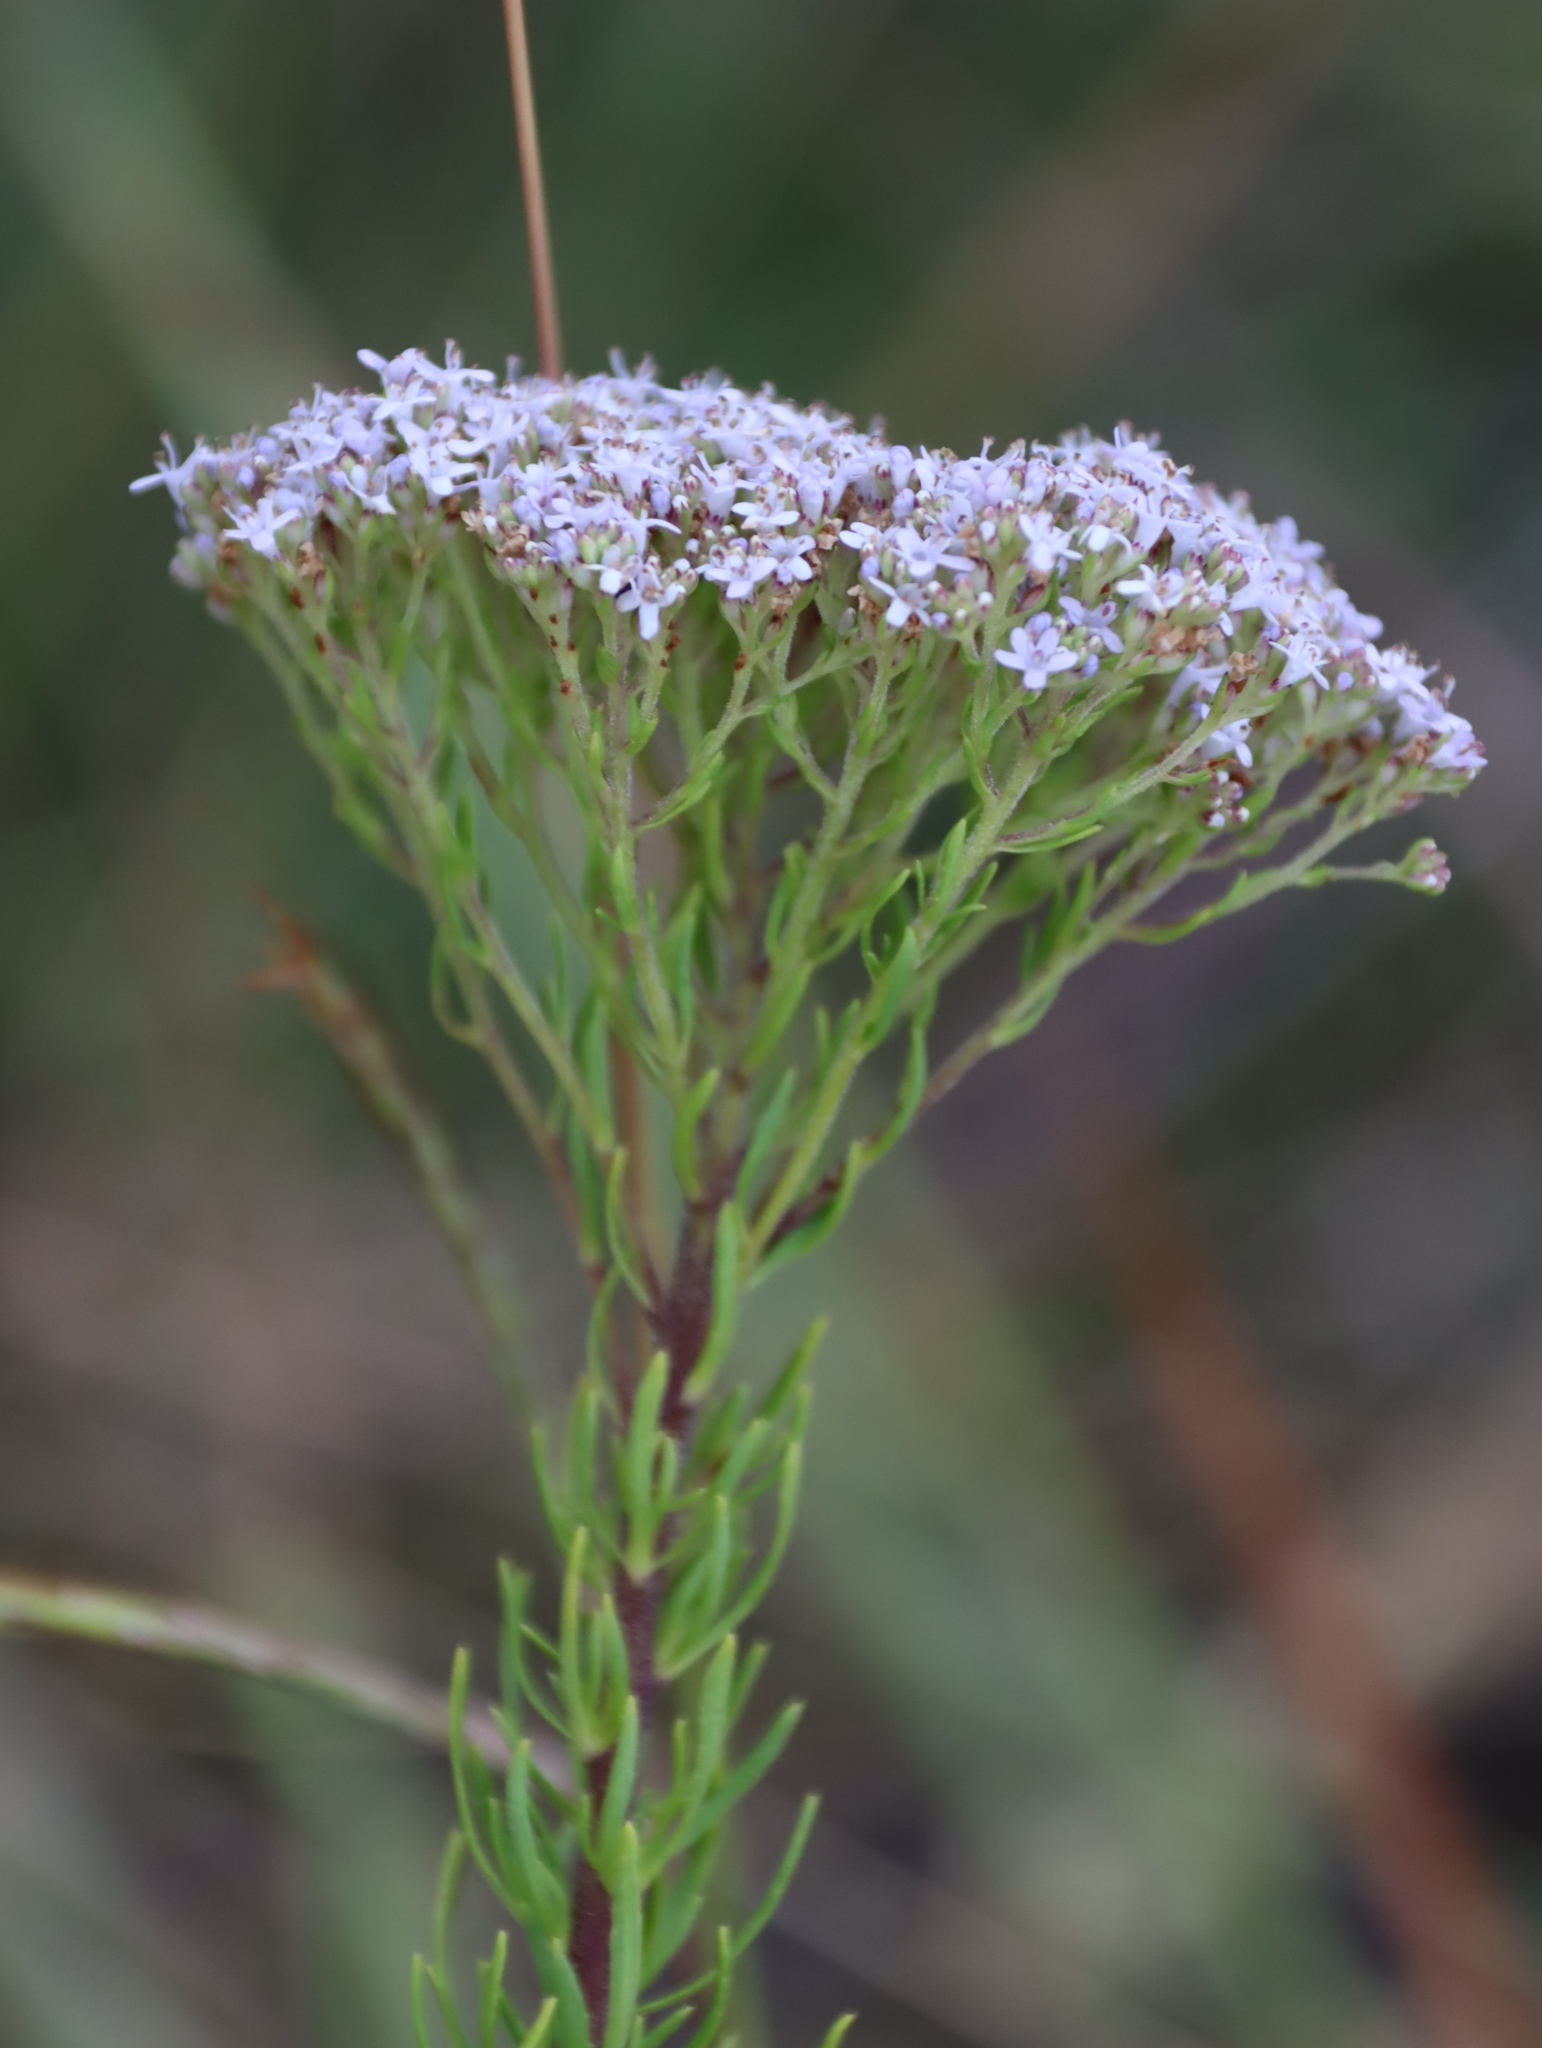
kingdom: Plantae
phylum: Tracheophyta
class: Magnoliopsida
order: Lamiales
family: Scrophulariaceae
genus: Tetraselago
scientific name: Tetraselago natalensis
